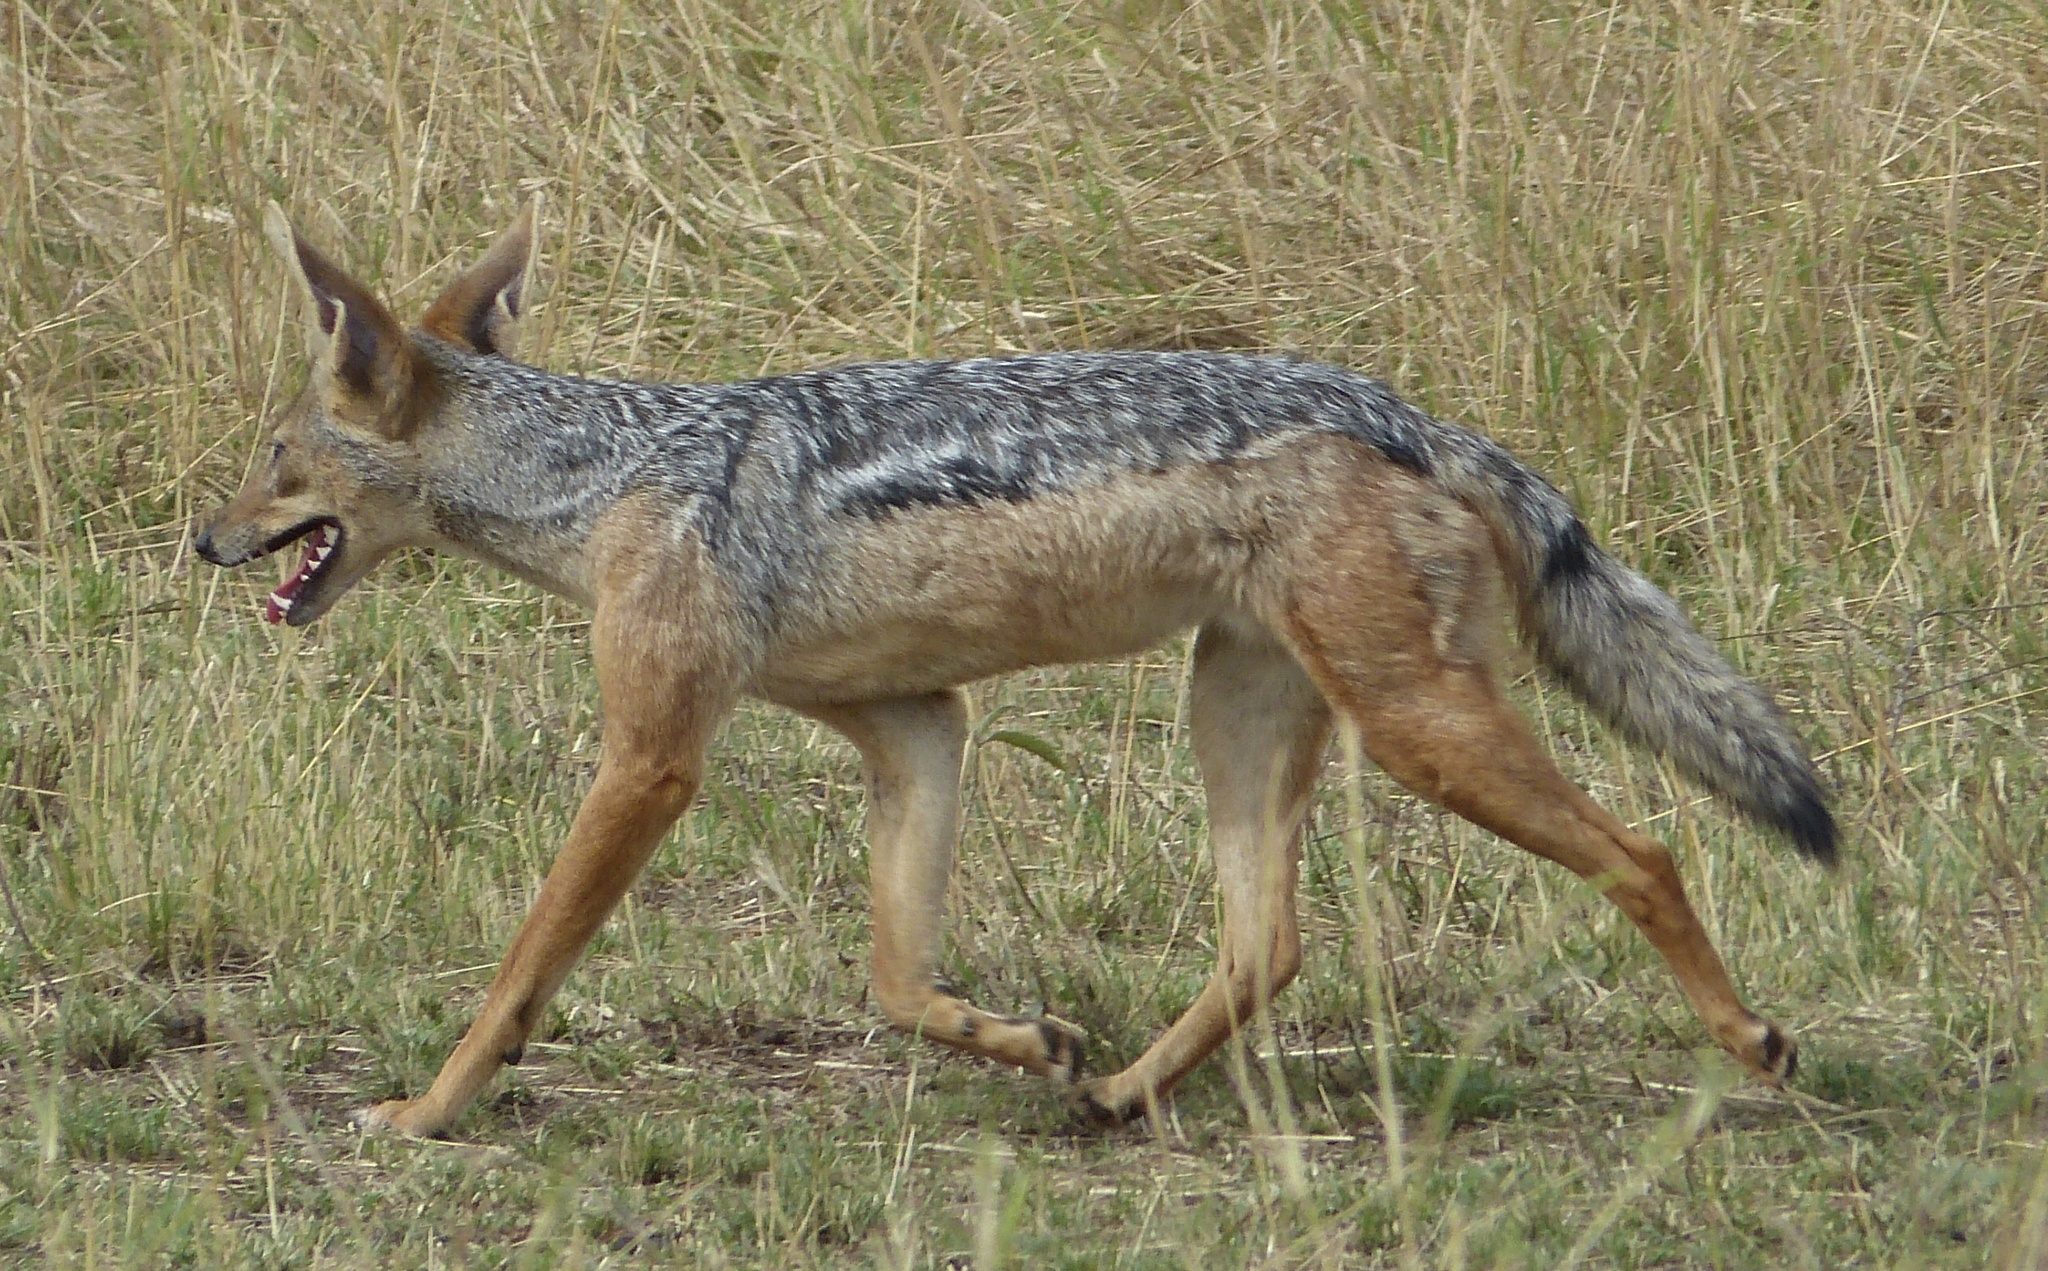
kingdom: Animalia
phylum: Chordata
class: Mammalia
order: Carnivora
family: Canidae
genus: Lupulella
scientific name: Lupulella
